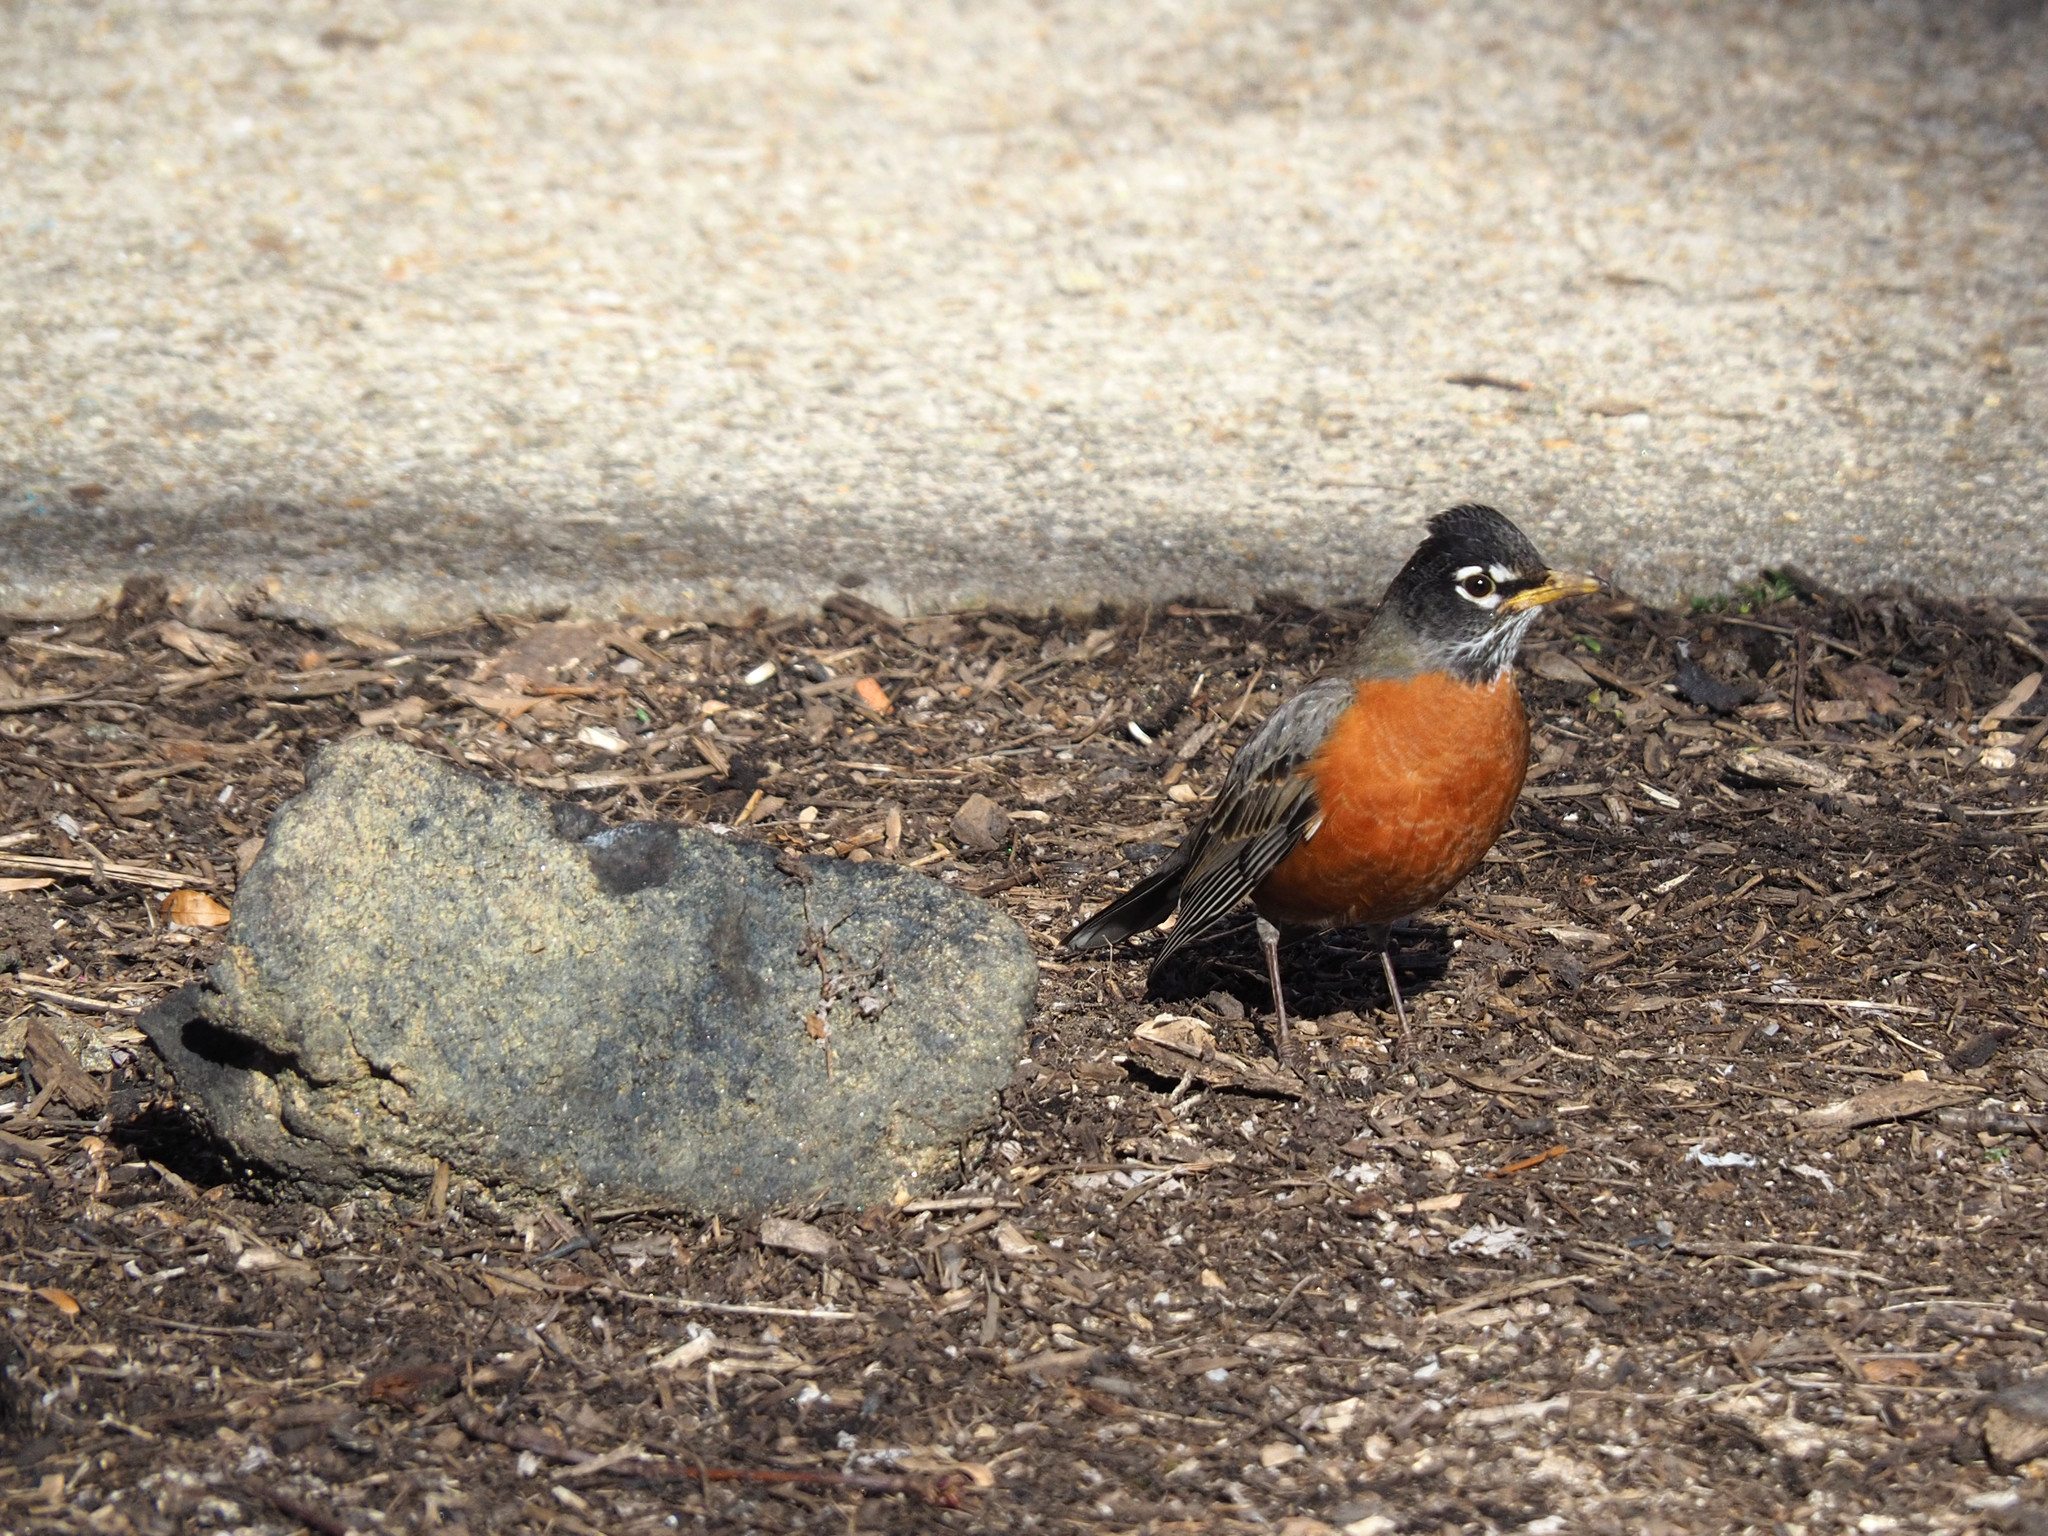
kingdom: Animalia
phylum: Chordata
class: Aves
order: Passeriformes
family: Turdidae
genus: Turdus
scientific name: Turdus migratorius
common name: American robin
